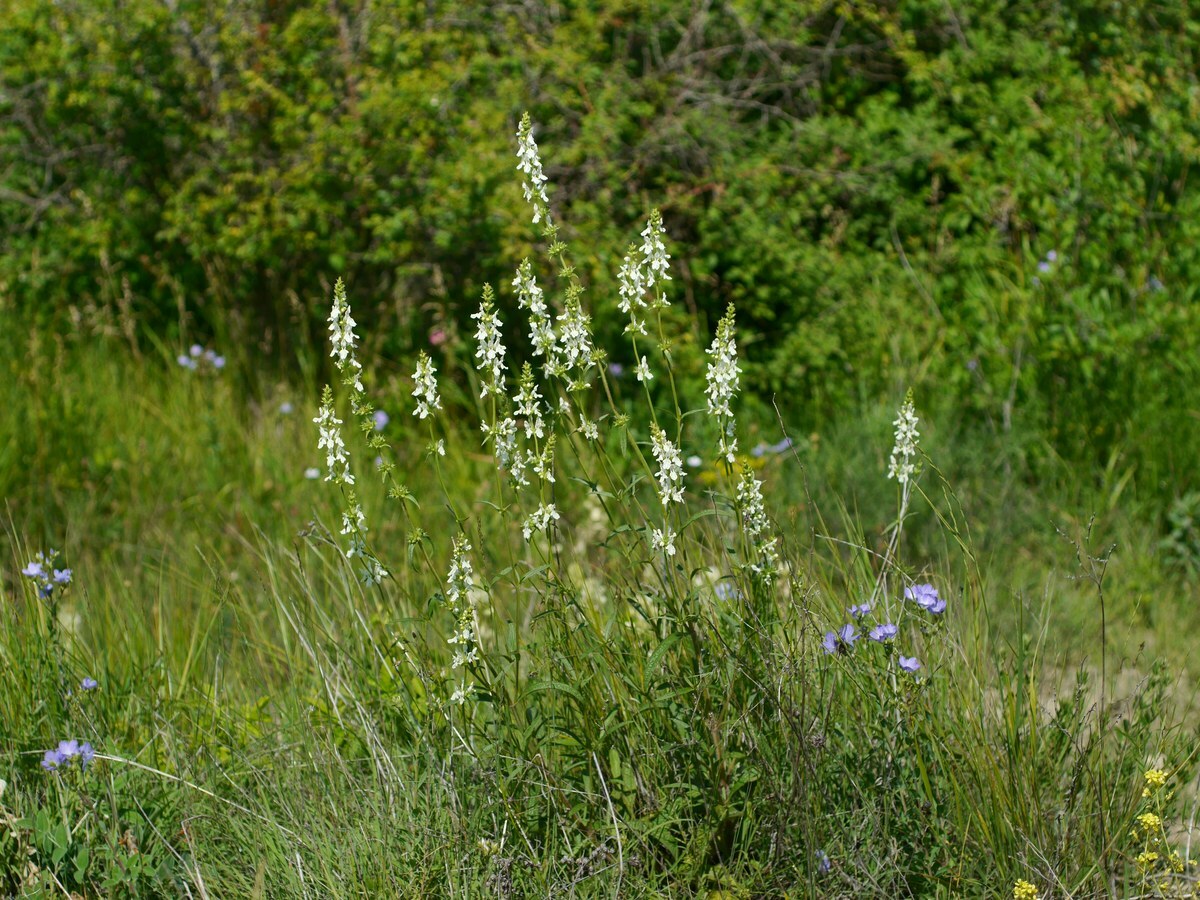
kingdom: Plantae
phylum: Tracheophyta
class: Magnoliopsida
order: Lamiales
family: Lamiaceae
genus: Stachys
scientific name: Stachys recta
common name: Perennial yellow-woundwort
